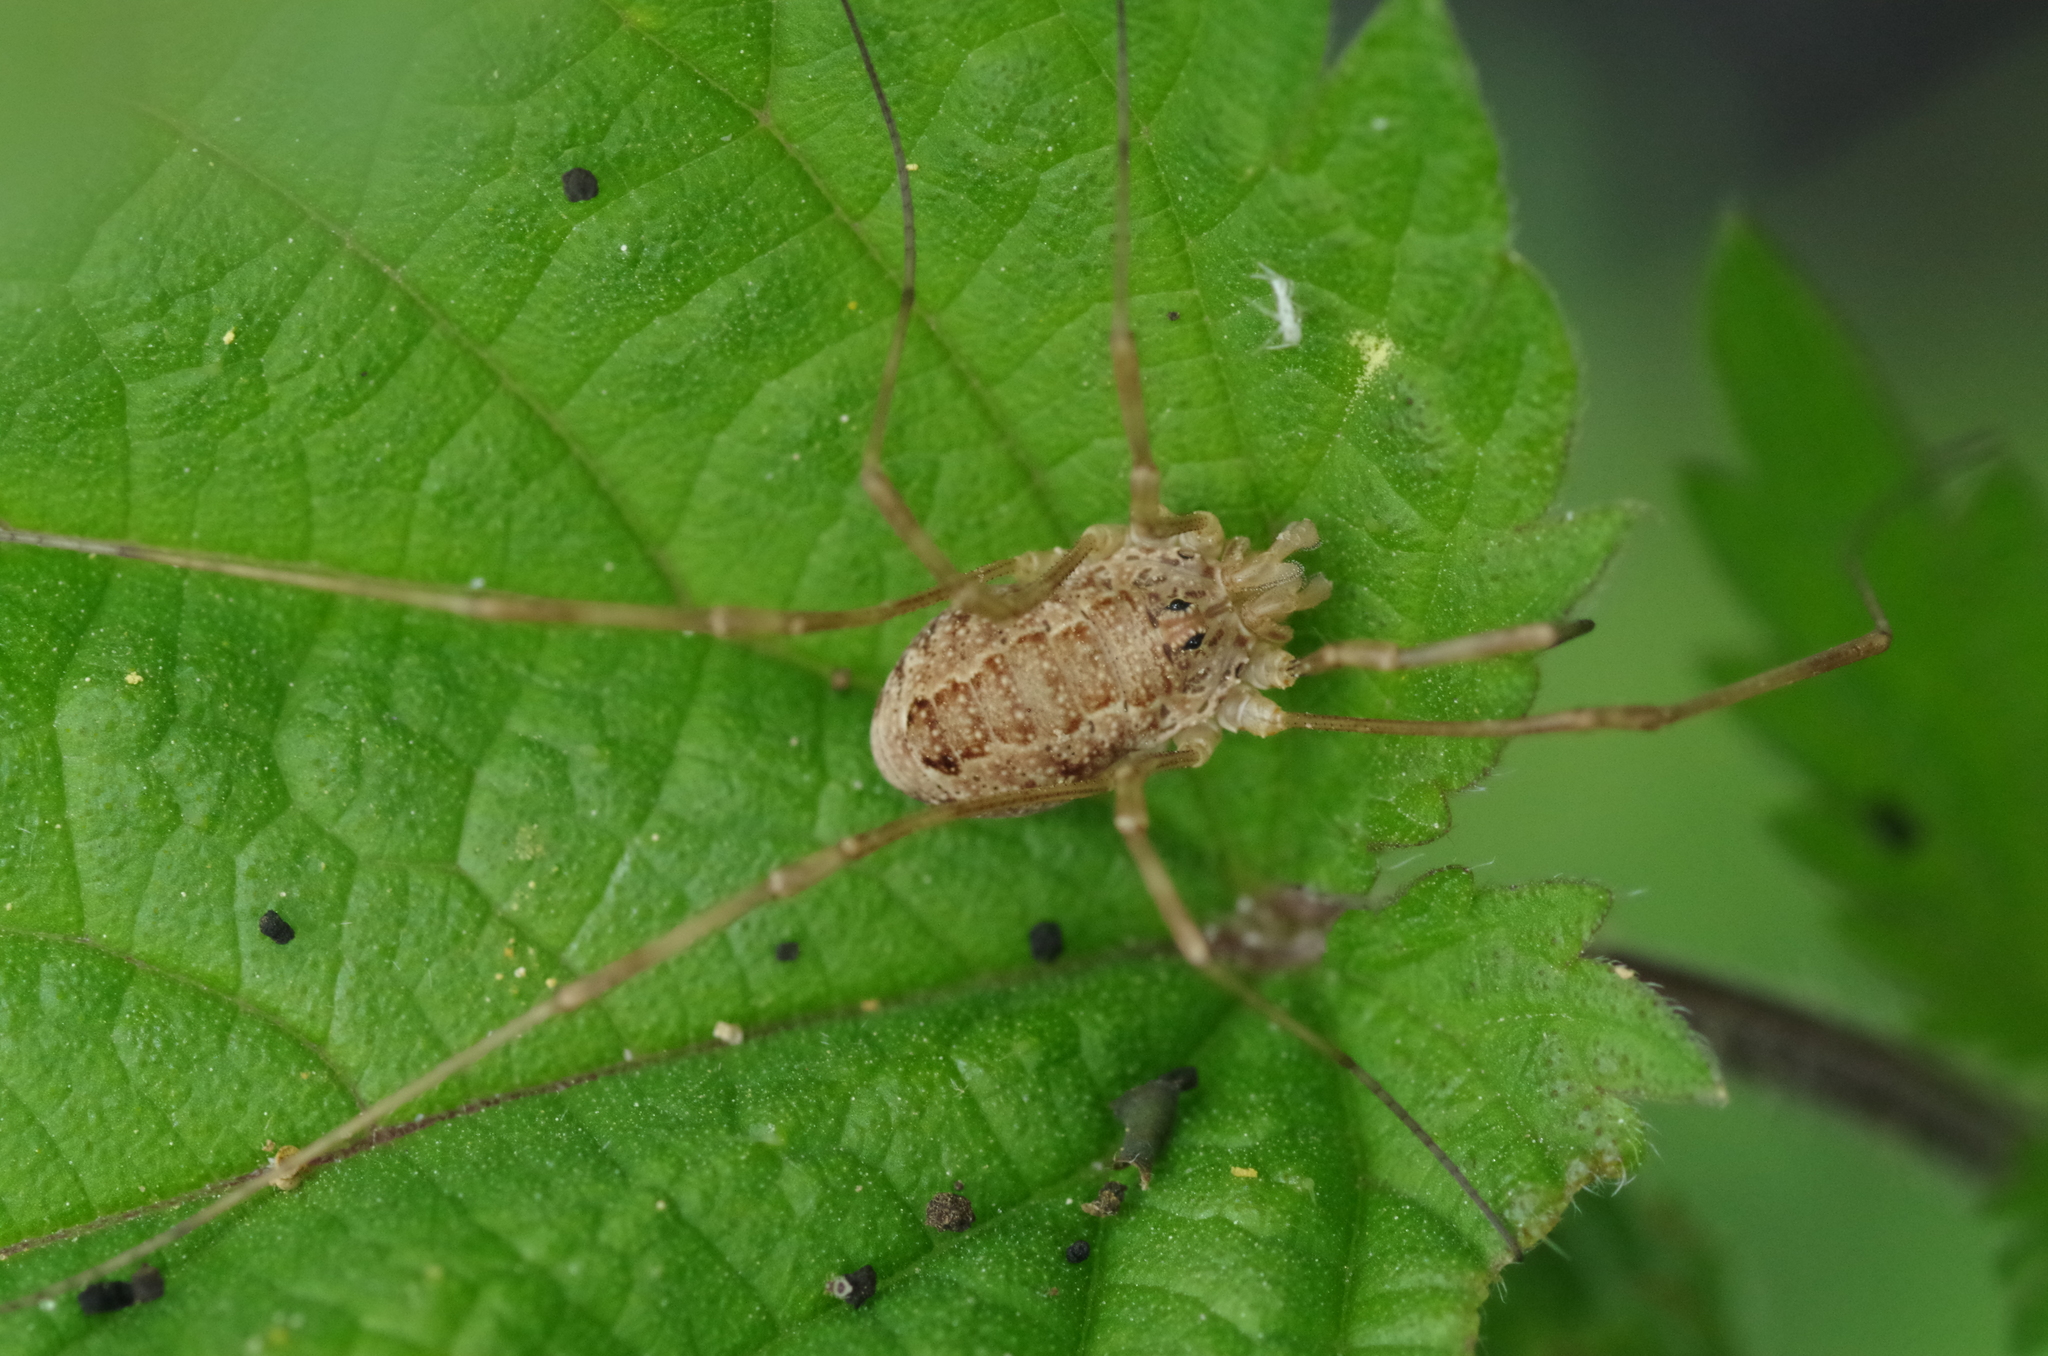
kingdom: Animalia
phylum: Arthropoda
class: Arachnida
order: Opiliones
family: Phalangiidae
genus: Rilaena
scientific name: Rilaena triangularis
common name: Spring harvestman
